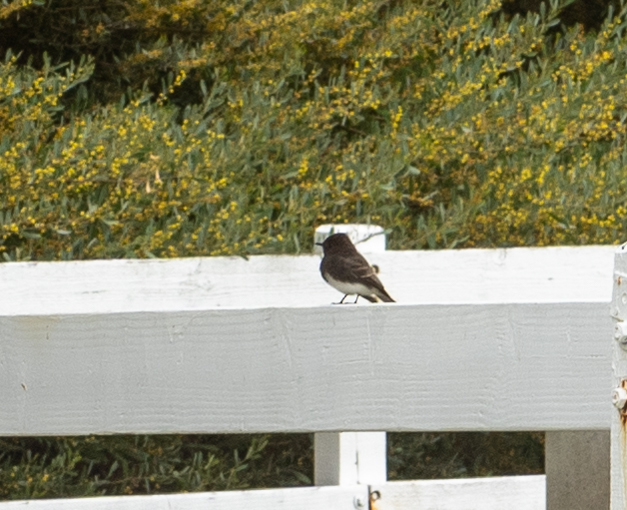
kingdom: Animalia
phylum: Chordata
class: Aves
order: Passeriformes
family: Tyrannidae
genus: Sayornis
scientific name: Sayornis nigricans
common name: Black phoebe
